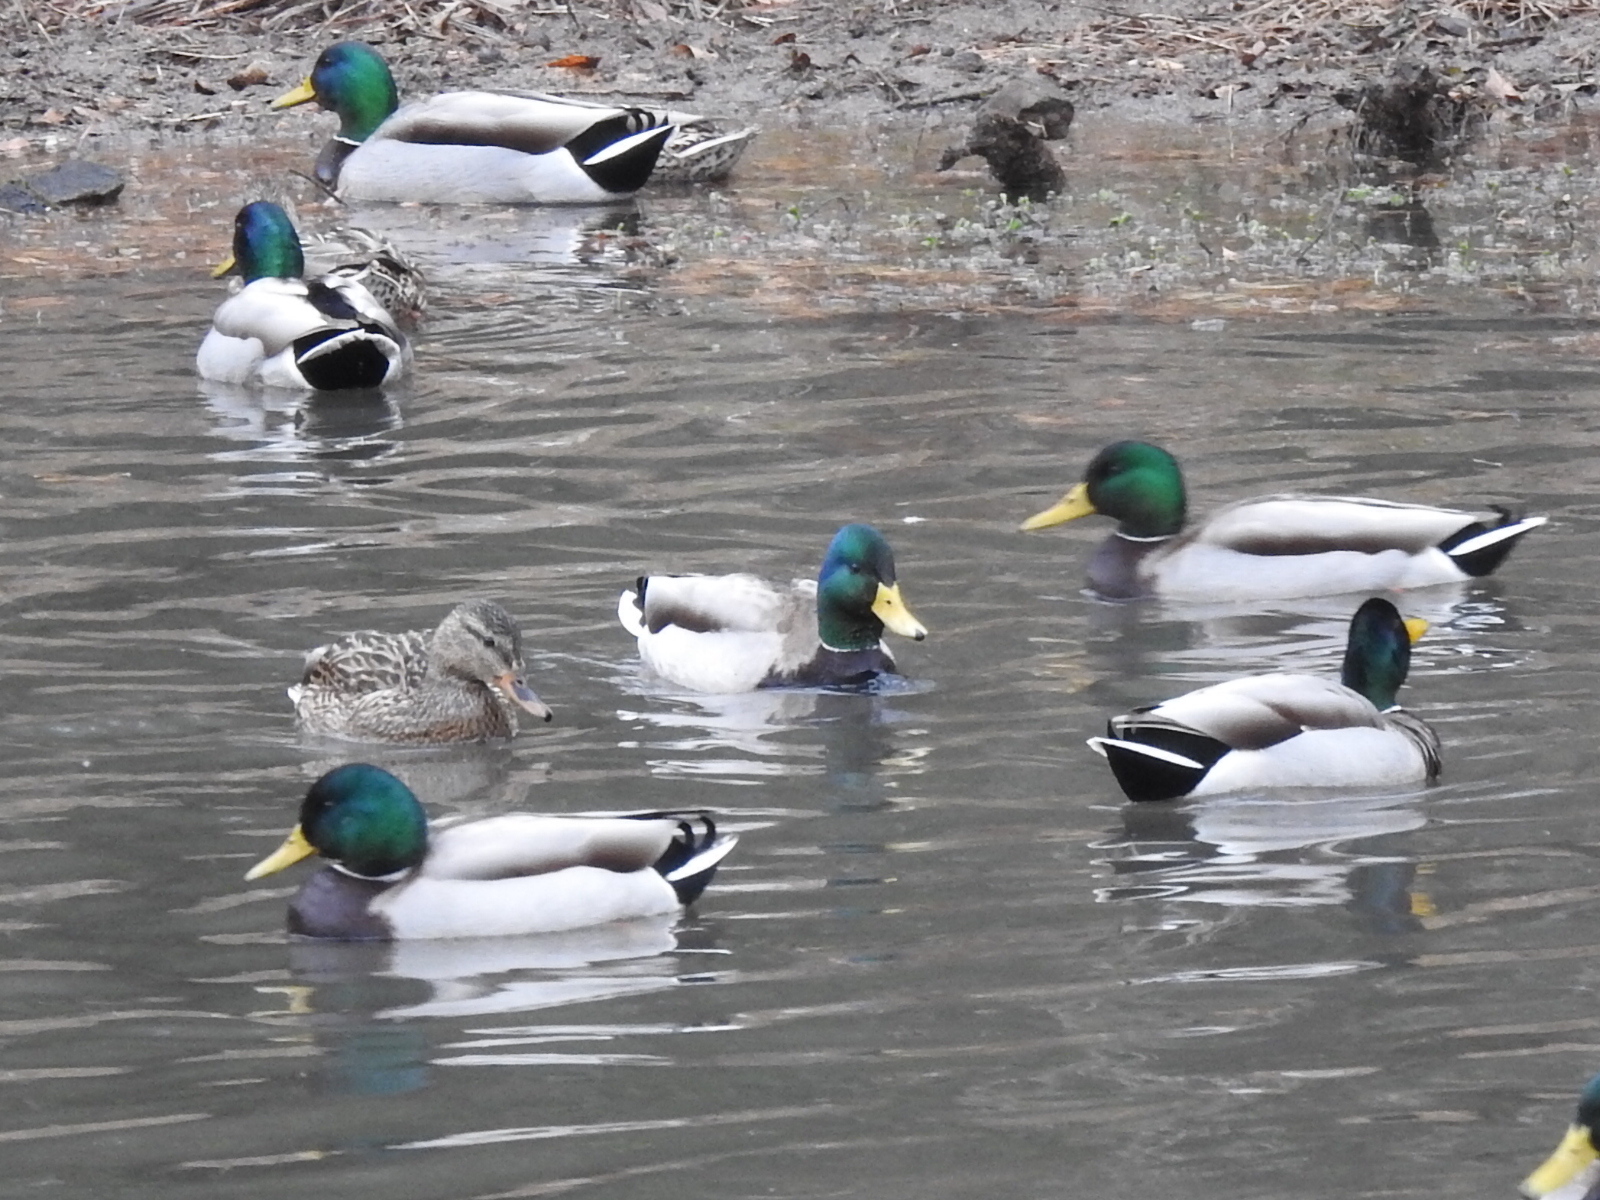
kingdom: Animalia
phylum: Chordata
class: Aves
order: Anseriformes
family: Anatidae
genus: Anas
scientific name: Anas platyrhynchos
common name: Mallard
